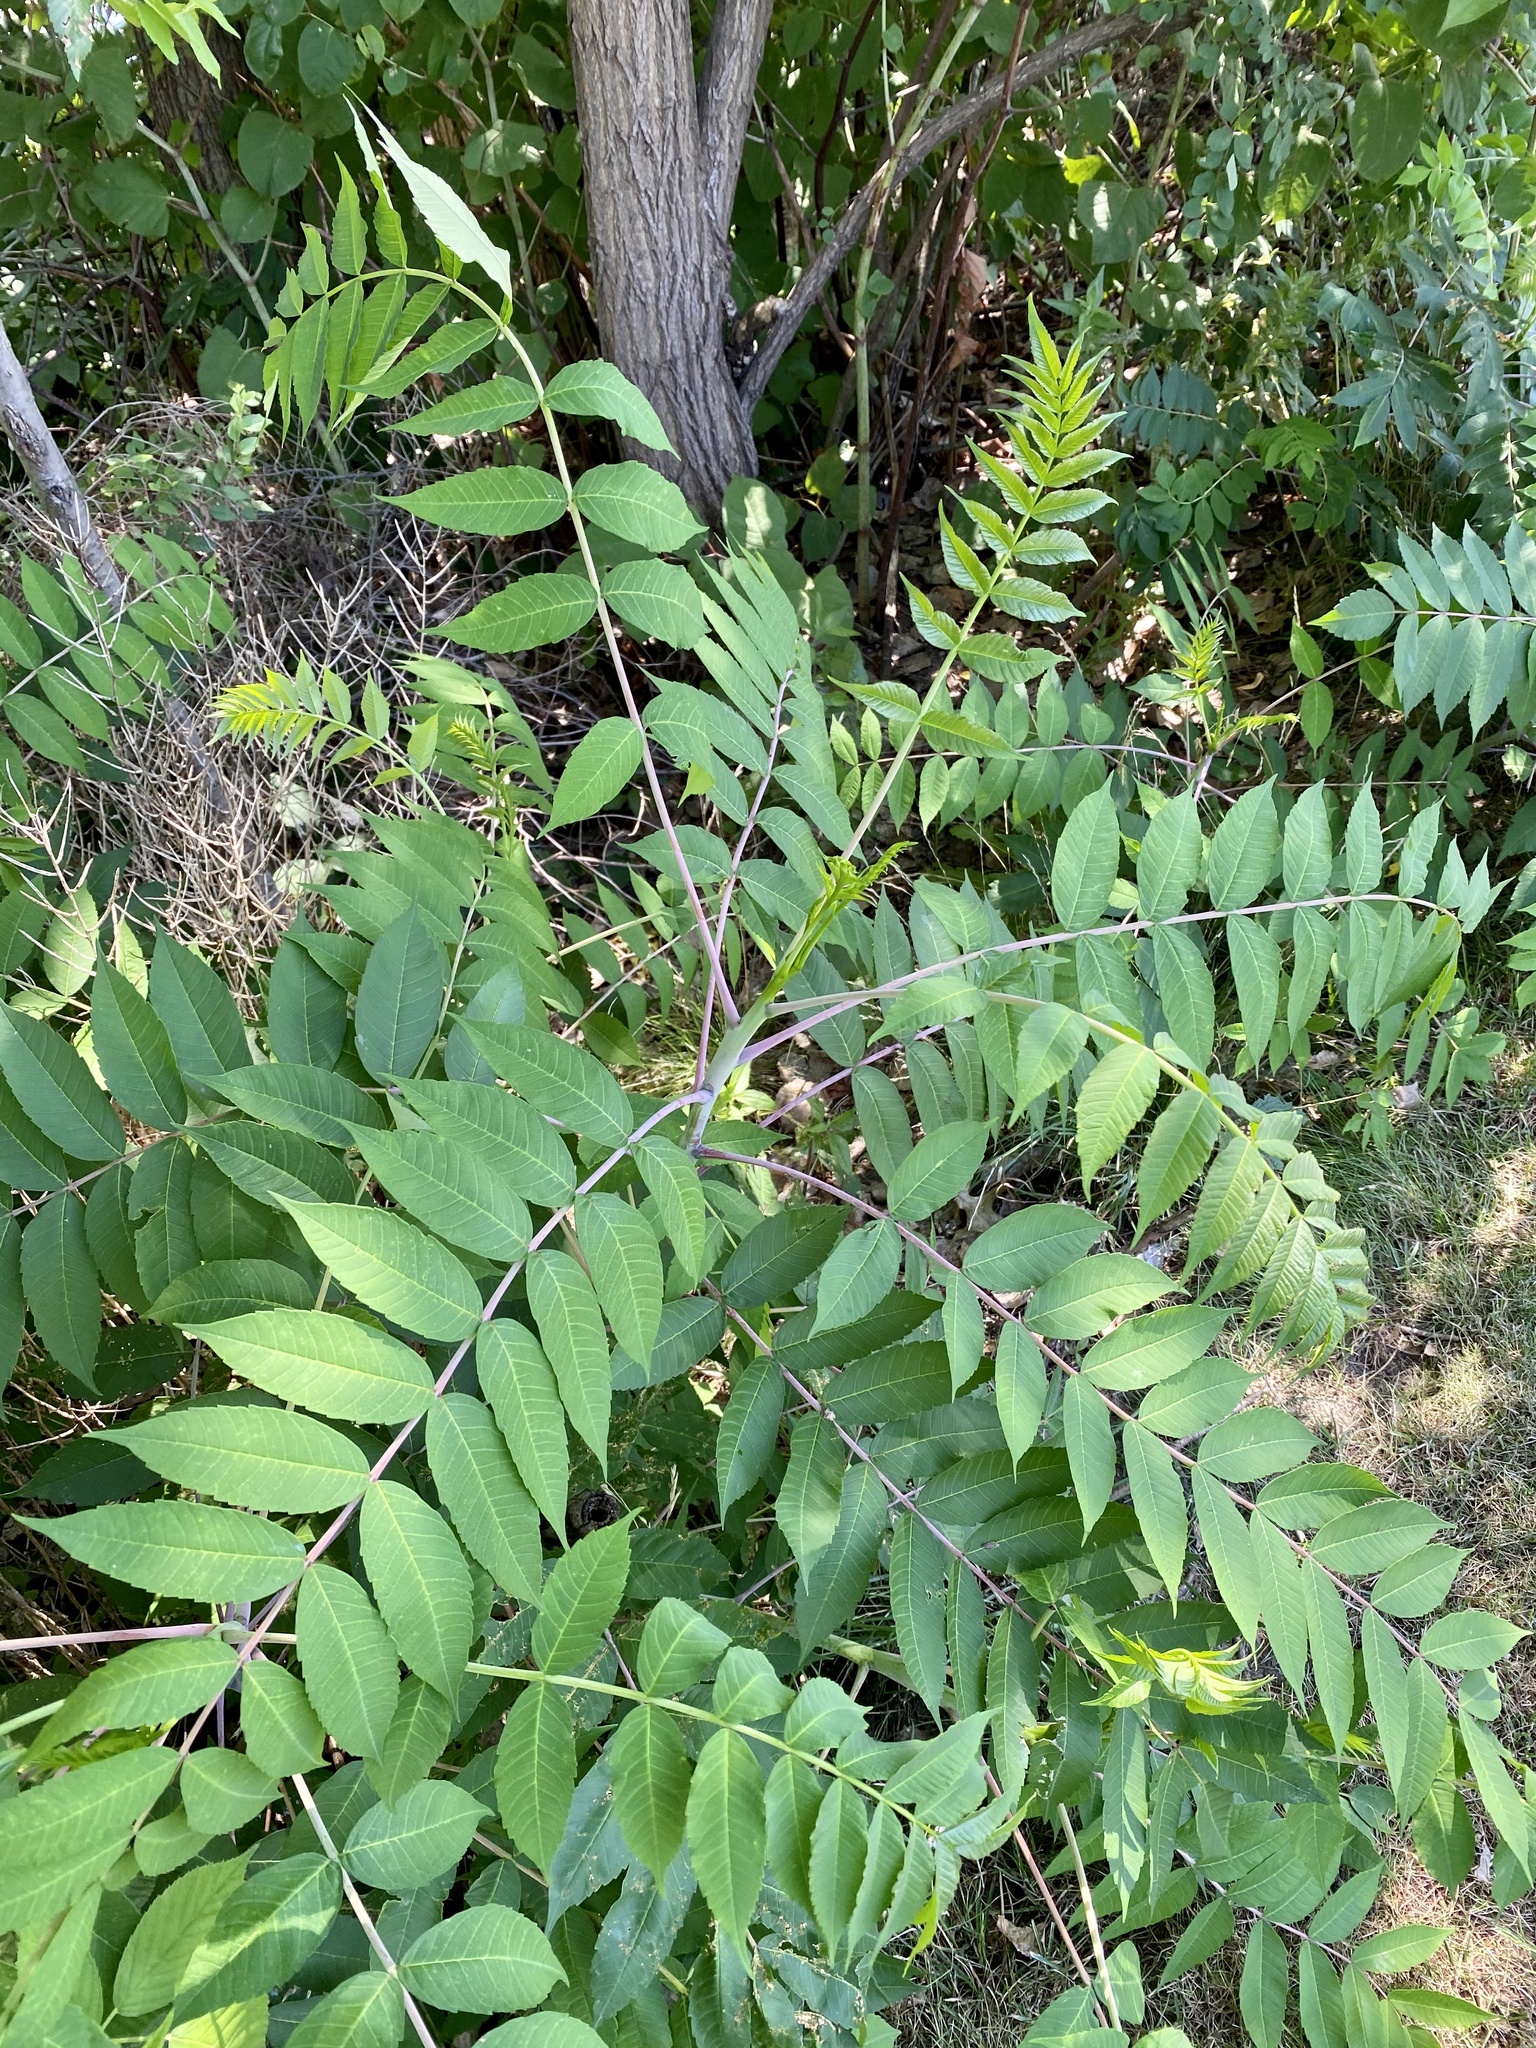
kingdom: Plantae
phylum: Tracheophyta
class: Magnoliopsida
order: Sapindales
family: Anacardiaceae
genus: Rhus
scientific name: Rhus glabra
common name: Scarlet sumac
